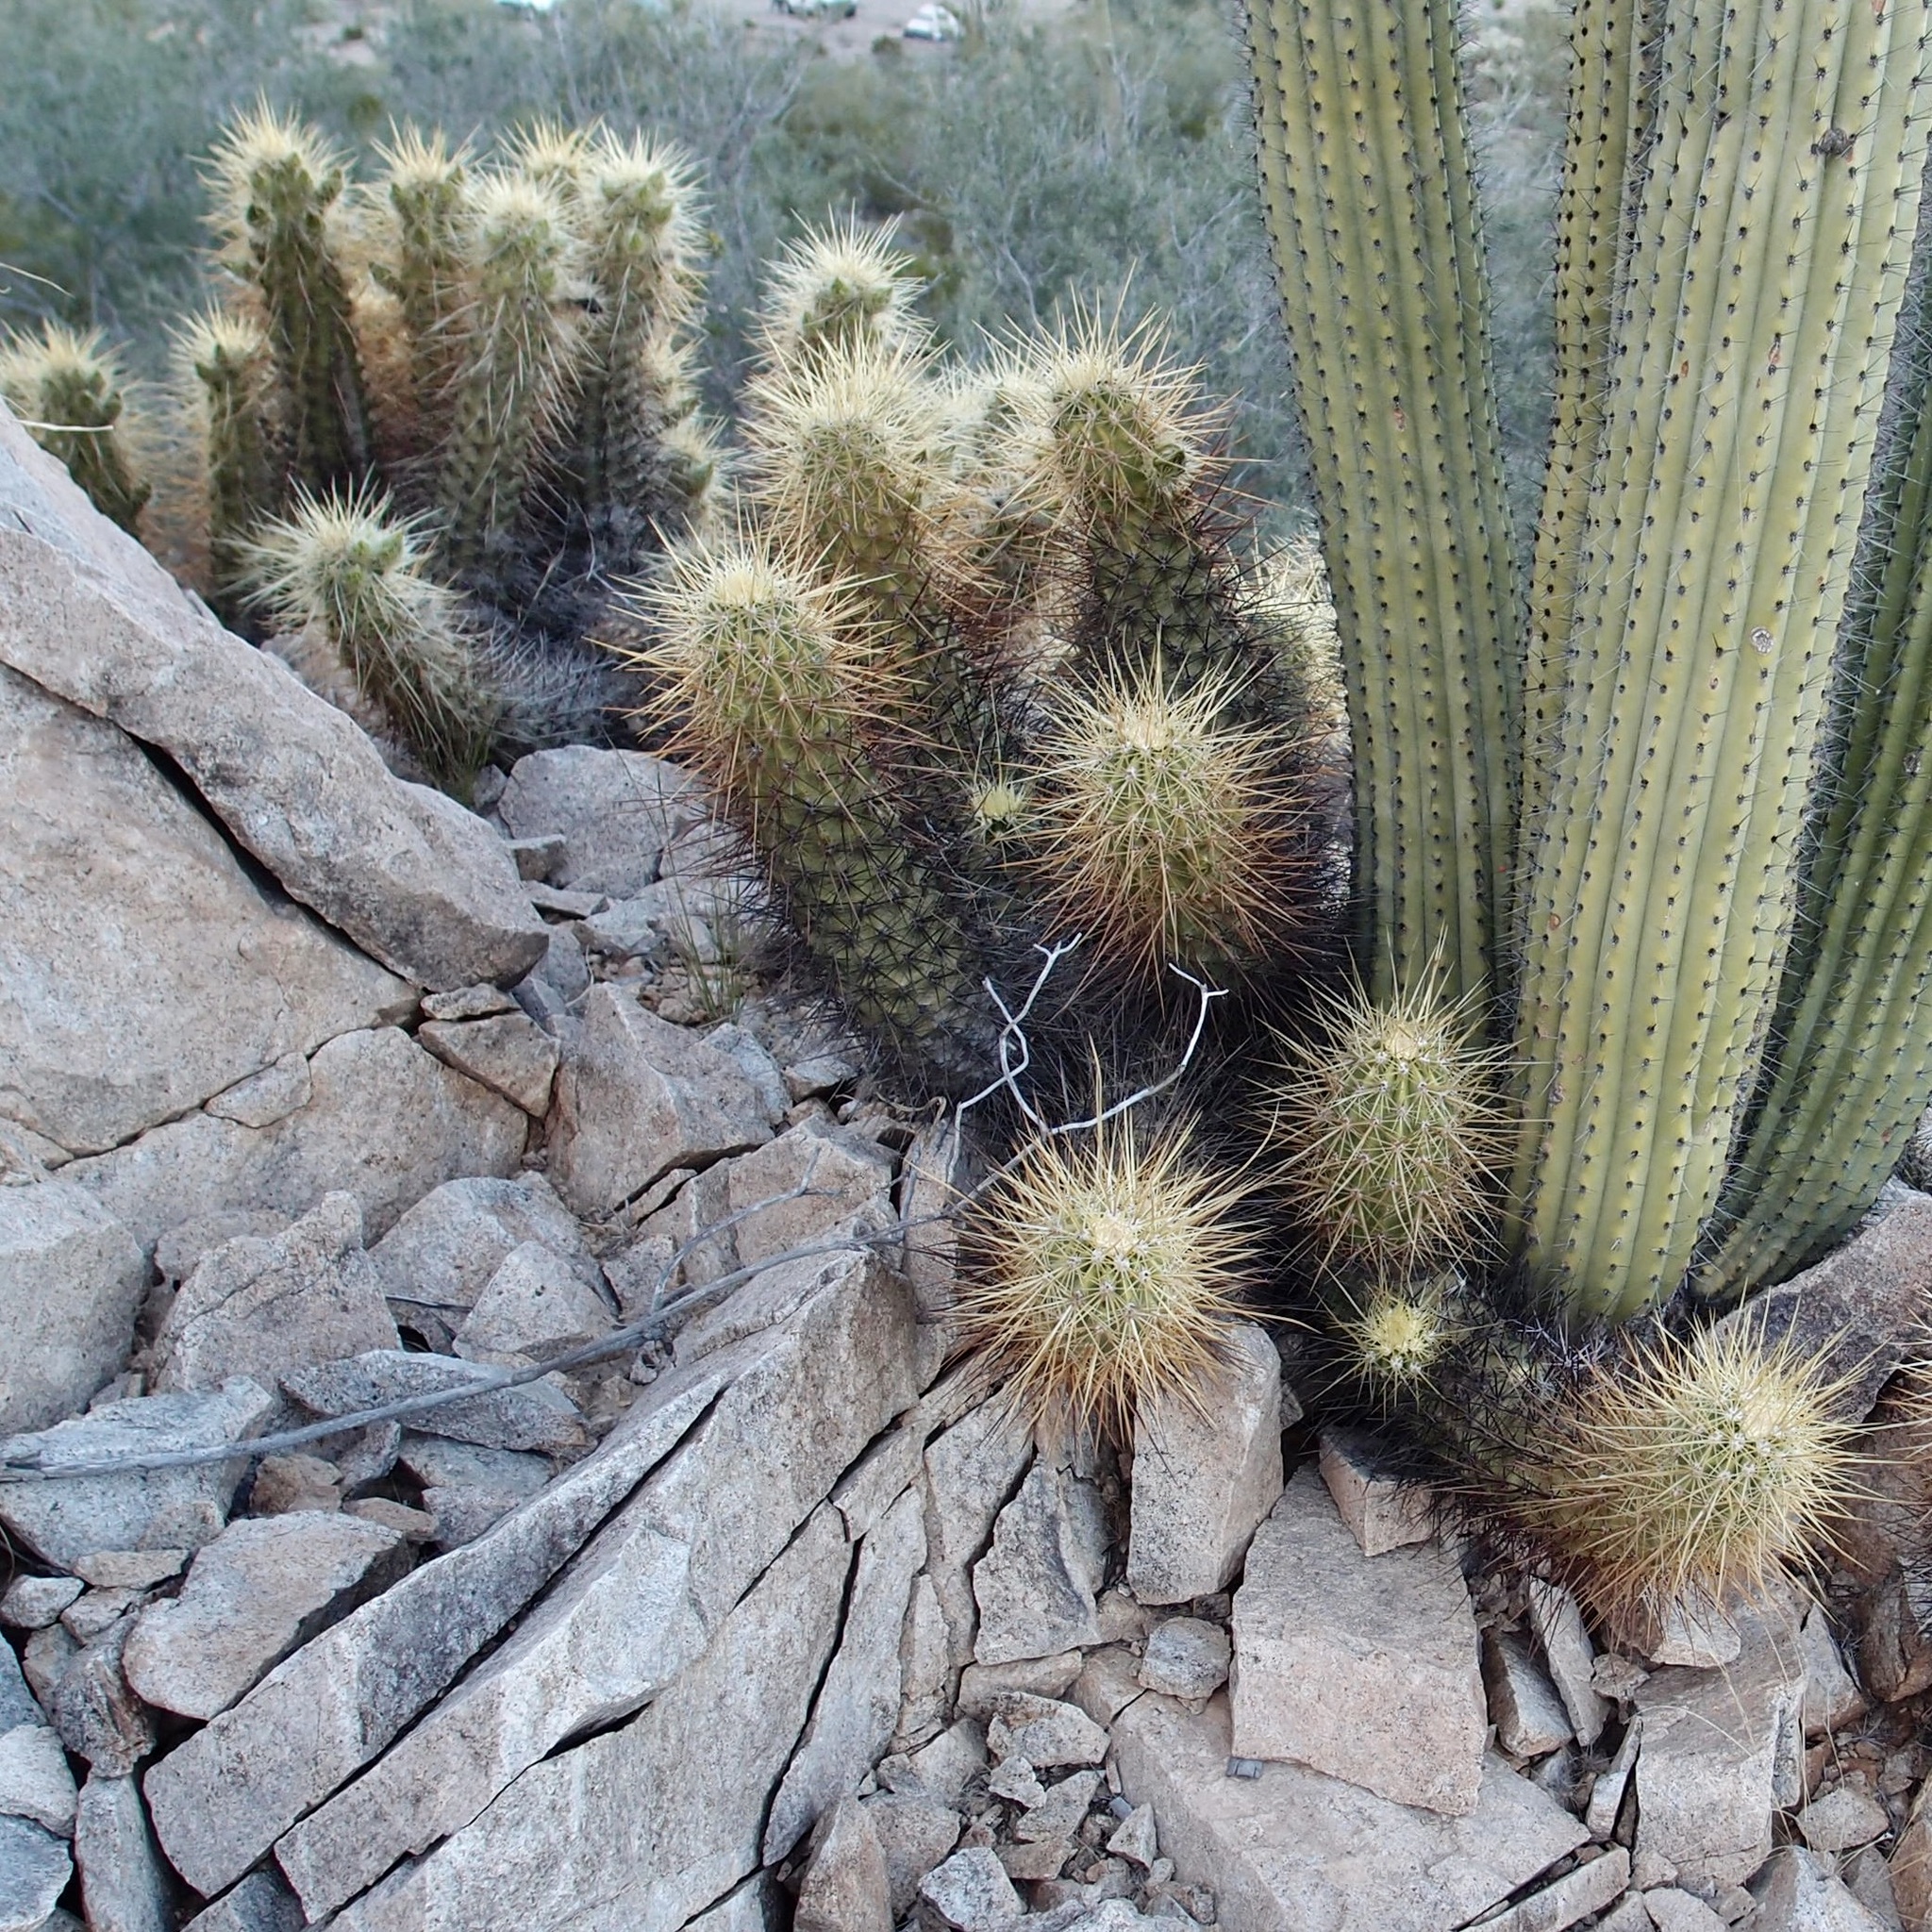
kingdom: Plantae
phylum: Tracheophyta
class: Magnoliopsida
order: Caryophyllales
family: Cactaceae
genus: Echinocereus
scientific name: Echinocereus nicholii
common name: Nichol's hedgehog cactus
